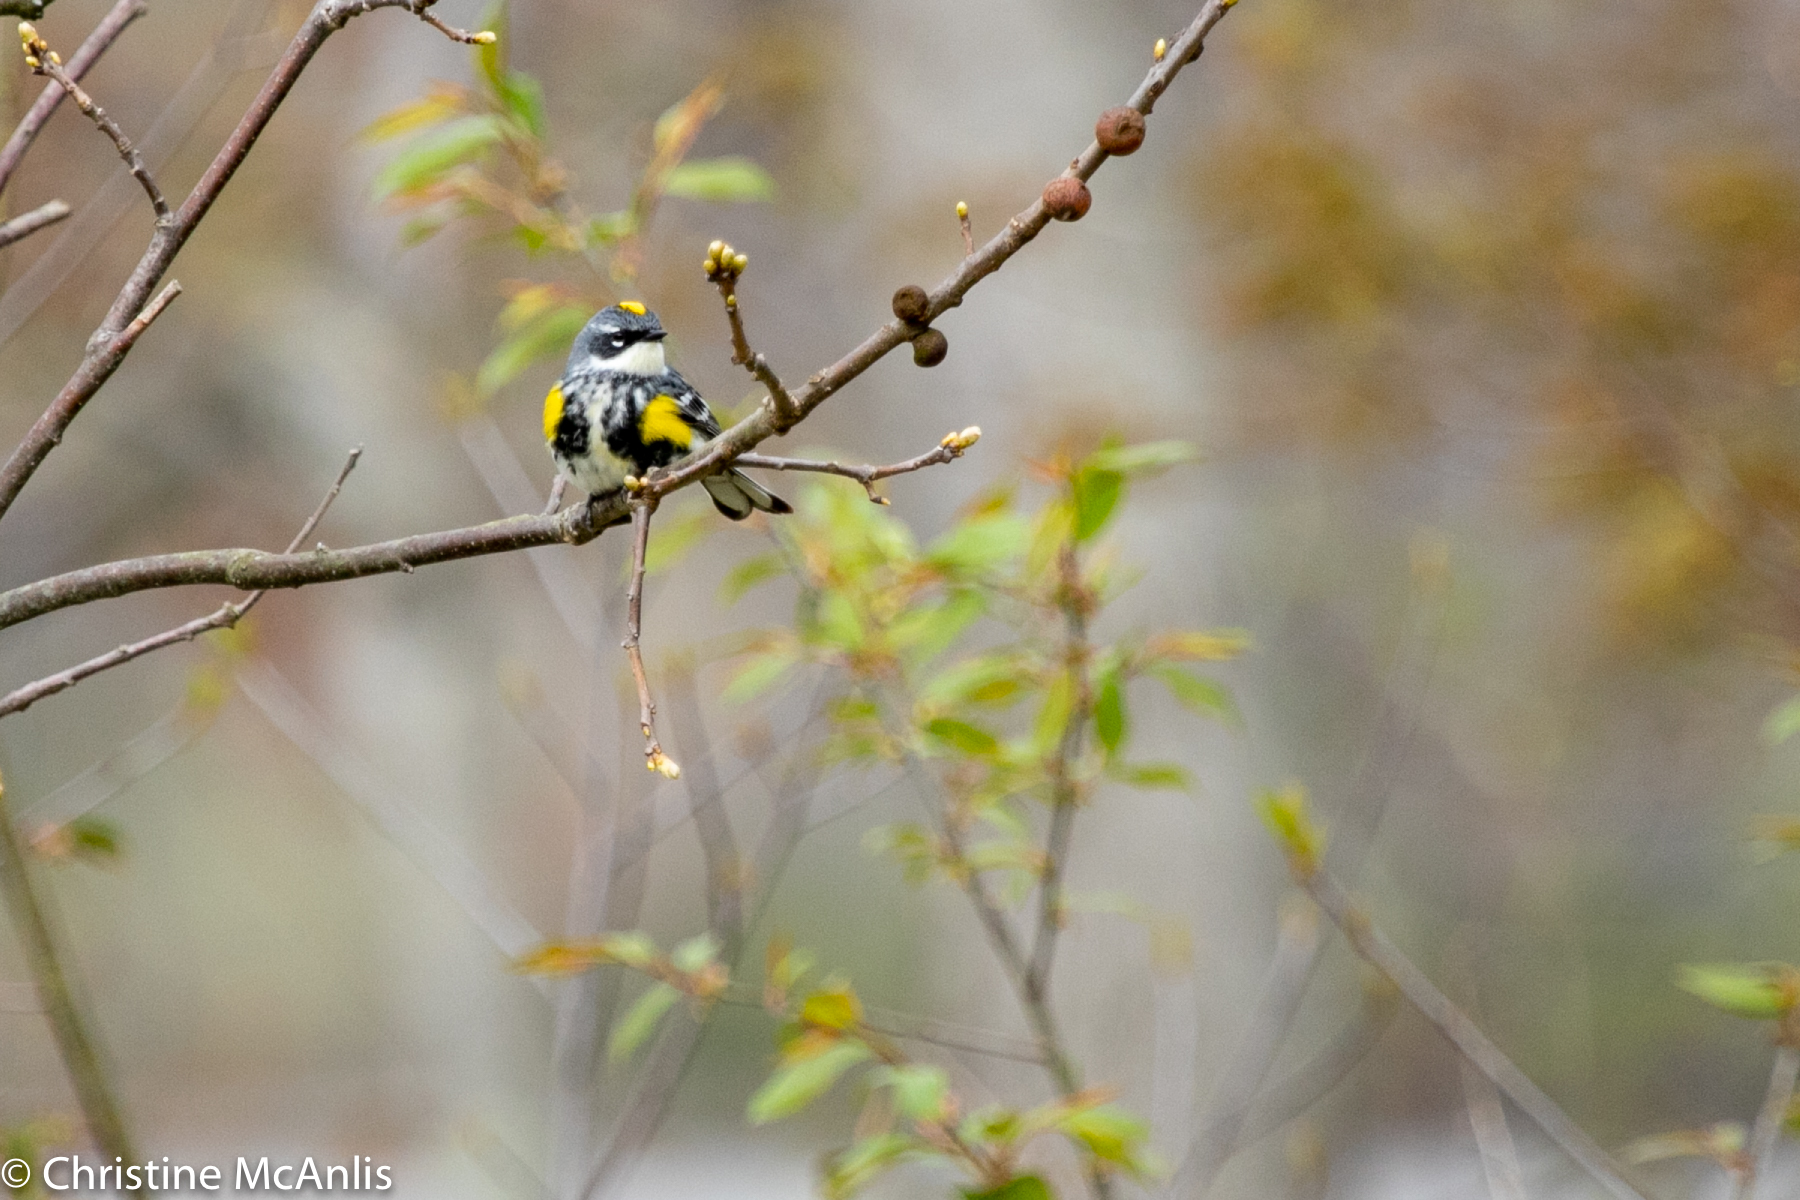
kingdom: Animalia
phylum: Chordata
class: Aves
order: Passeriformes
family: Parulidae
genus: Setophaga
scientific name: Setophaga coronata
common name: Myrtle warbler
